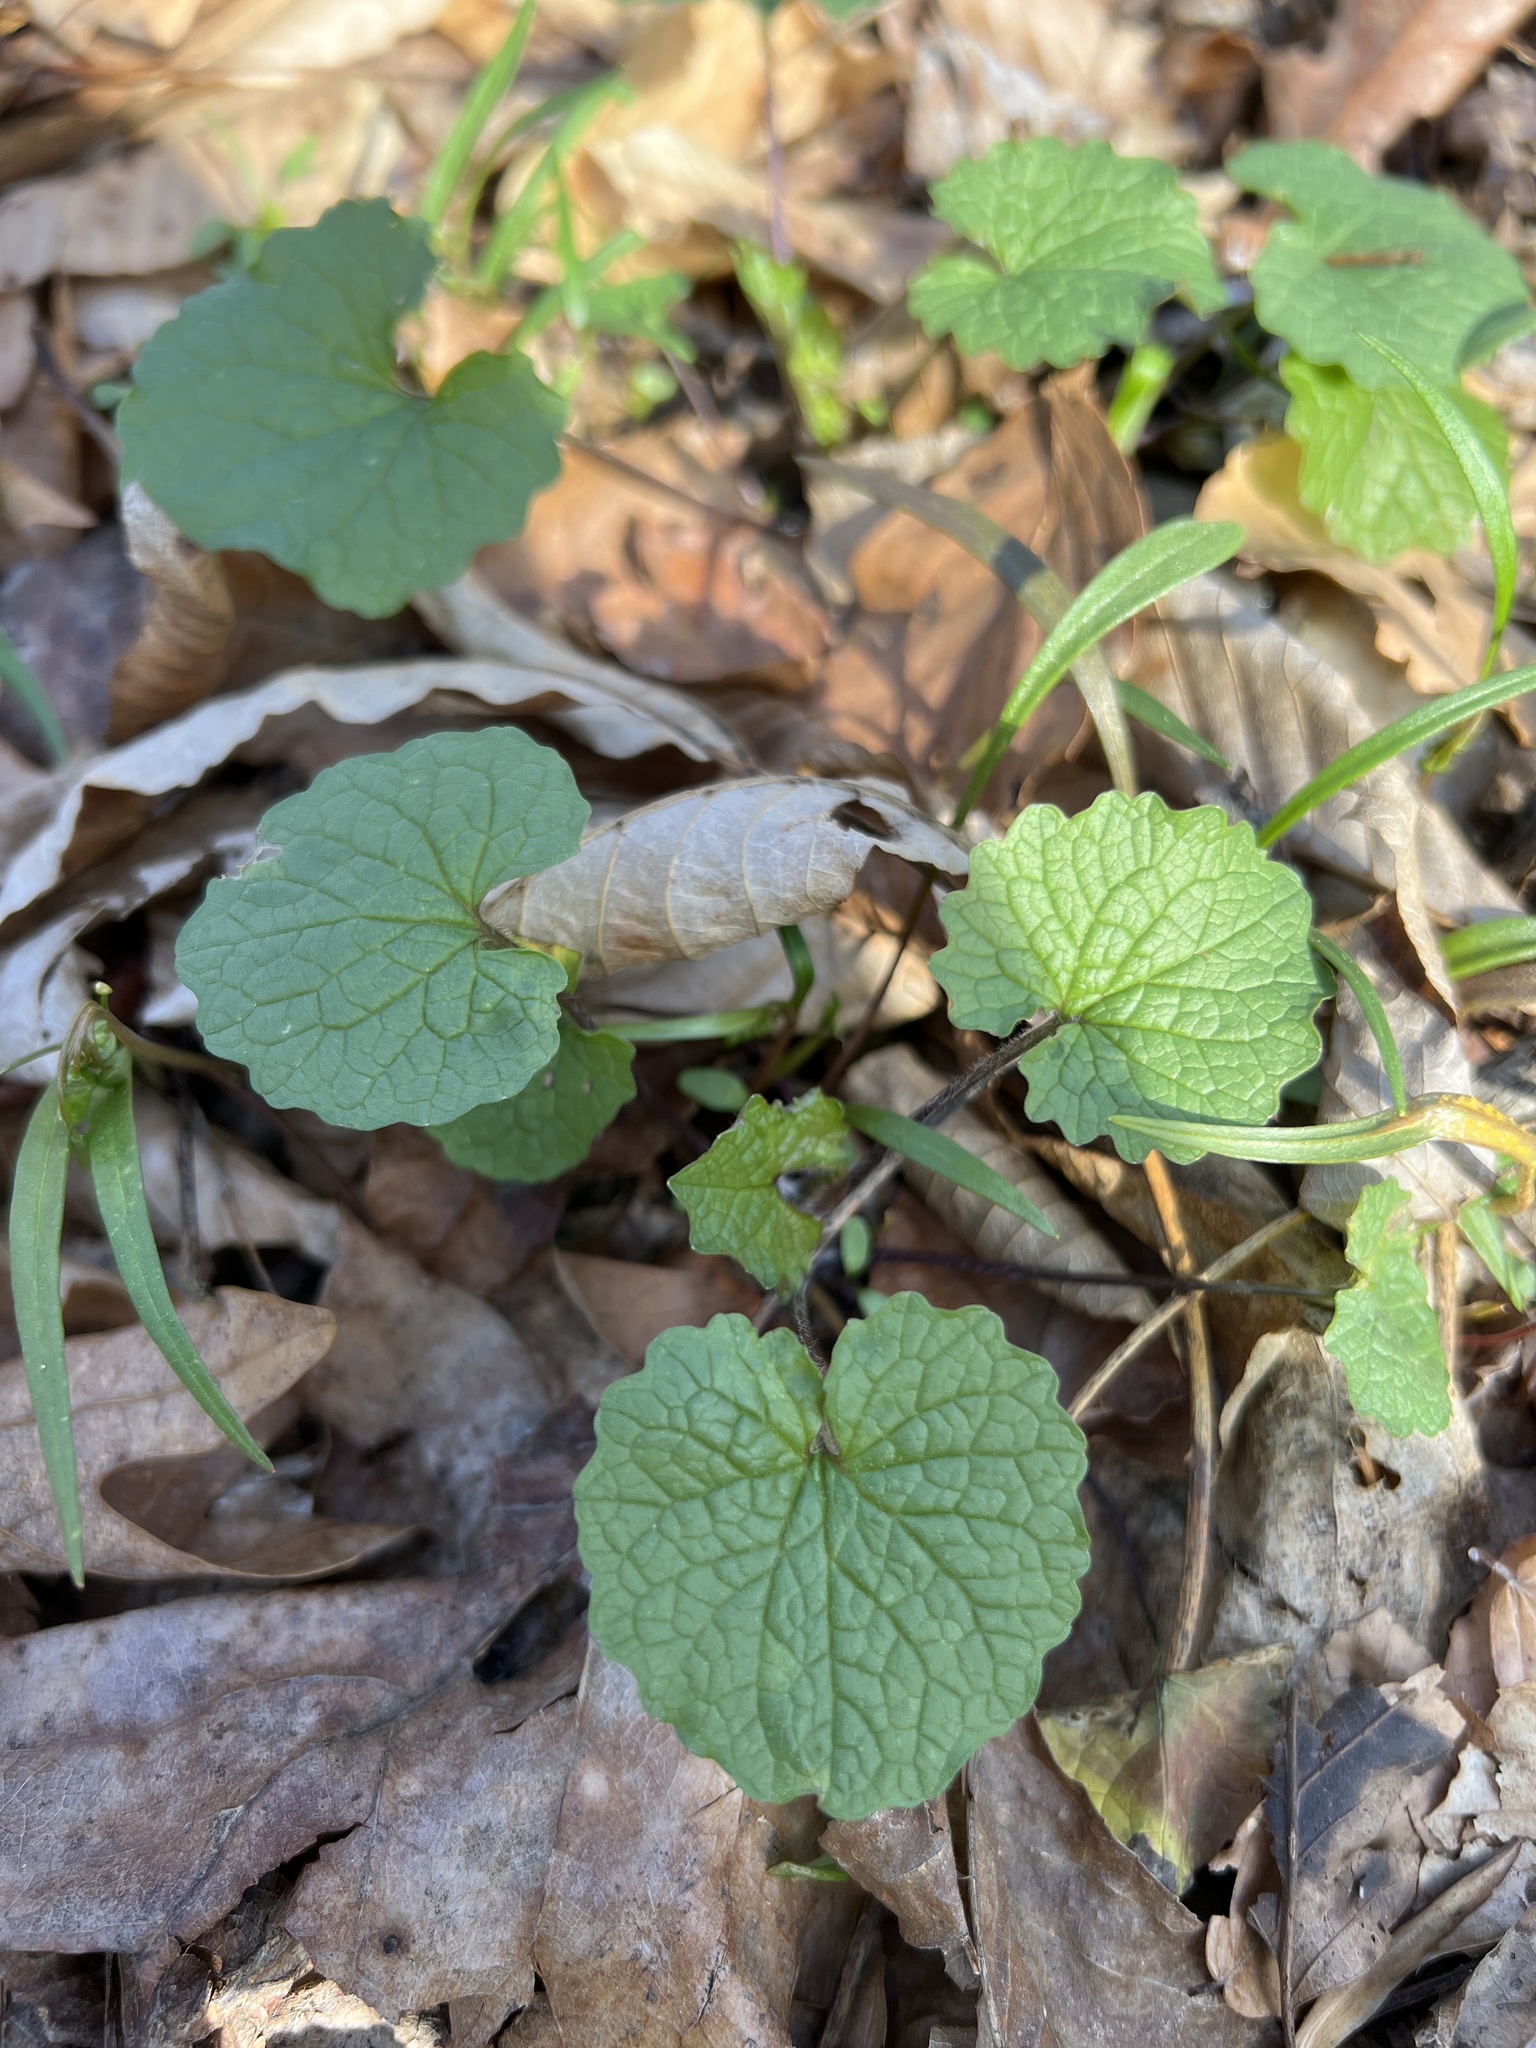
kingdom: Plantae
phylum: Tracheophyta
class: Magnoliopsida
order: Brassicales
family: Brassicaceae
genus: Alliaria
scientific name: Alliaria petiolata
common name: Garlic mustard
